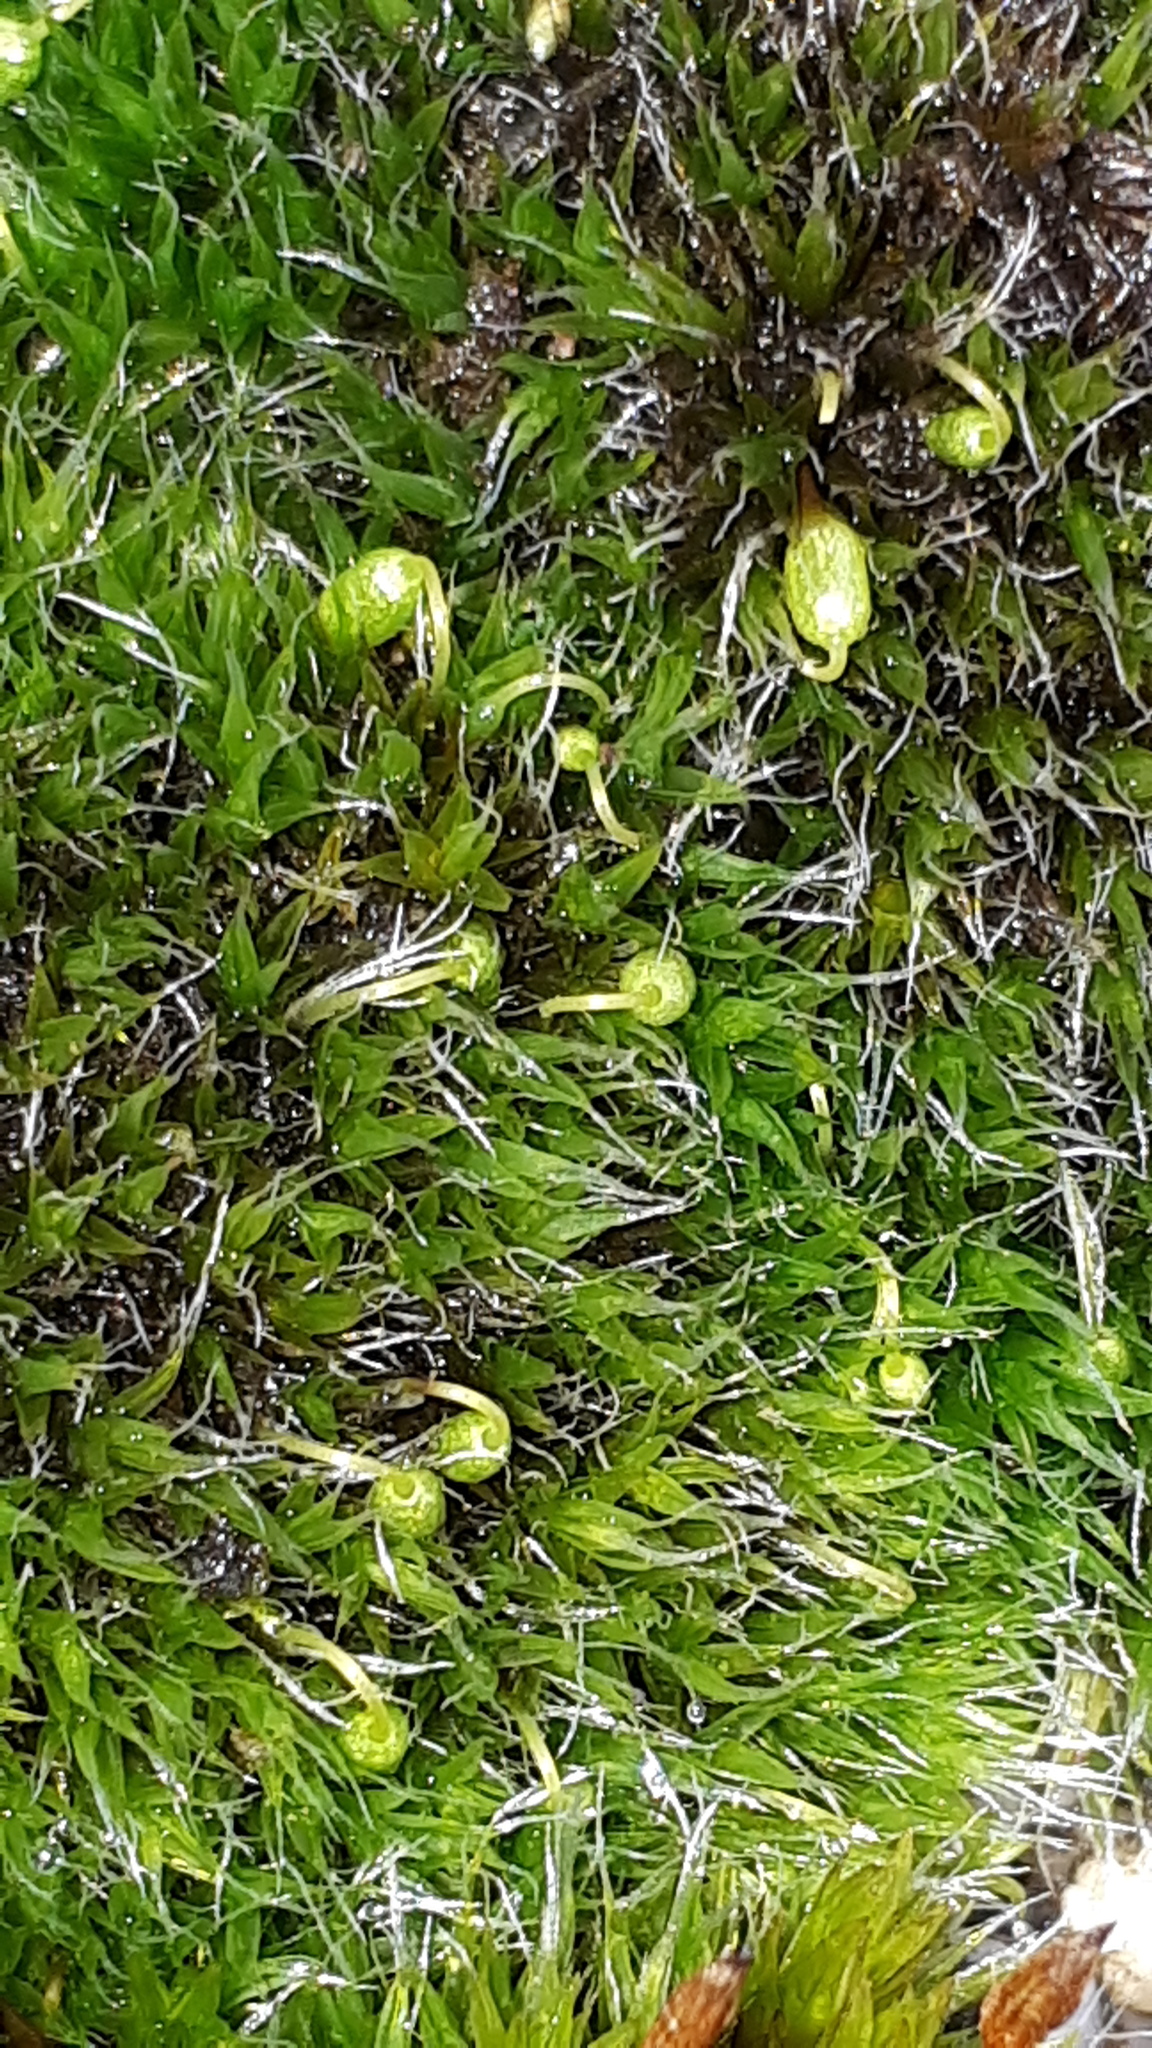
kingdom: Plantae
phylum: Bryophyta
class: Bryopsida
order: Grimmiales
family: Grimmiaceae
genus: Grimmia
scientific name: Grimmia pulvinata
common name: Grey-cushioned grimmia
